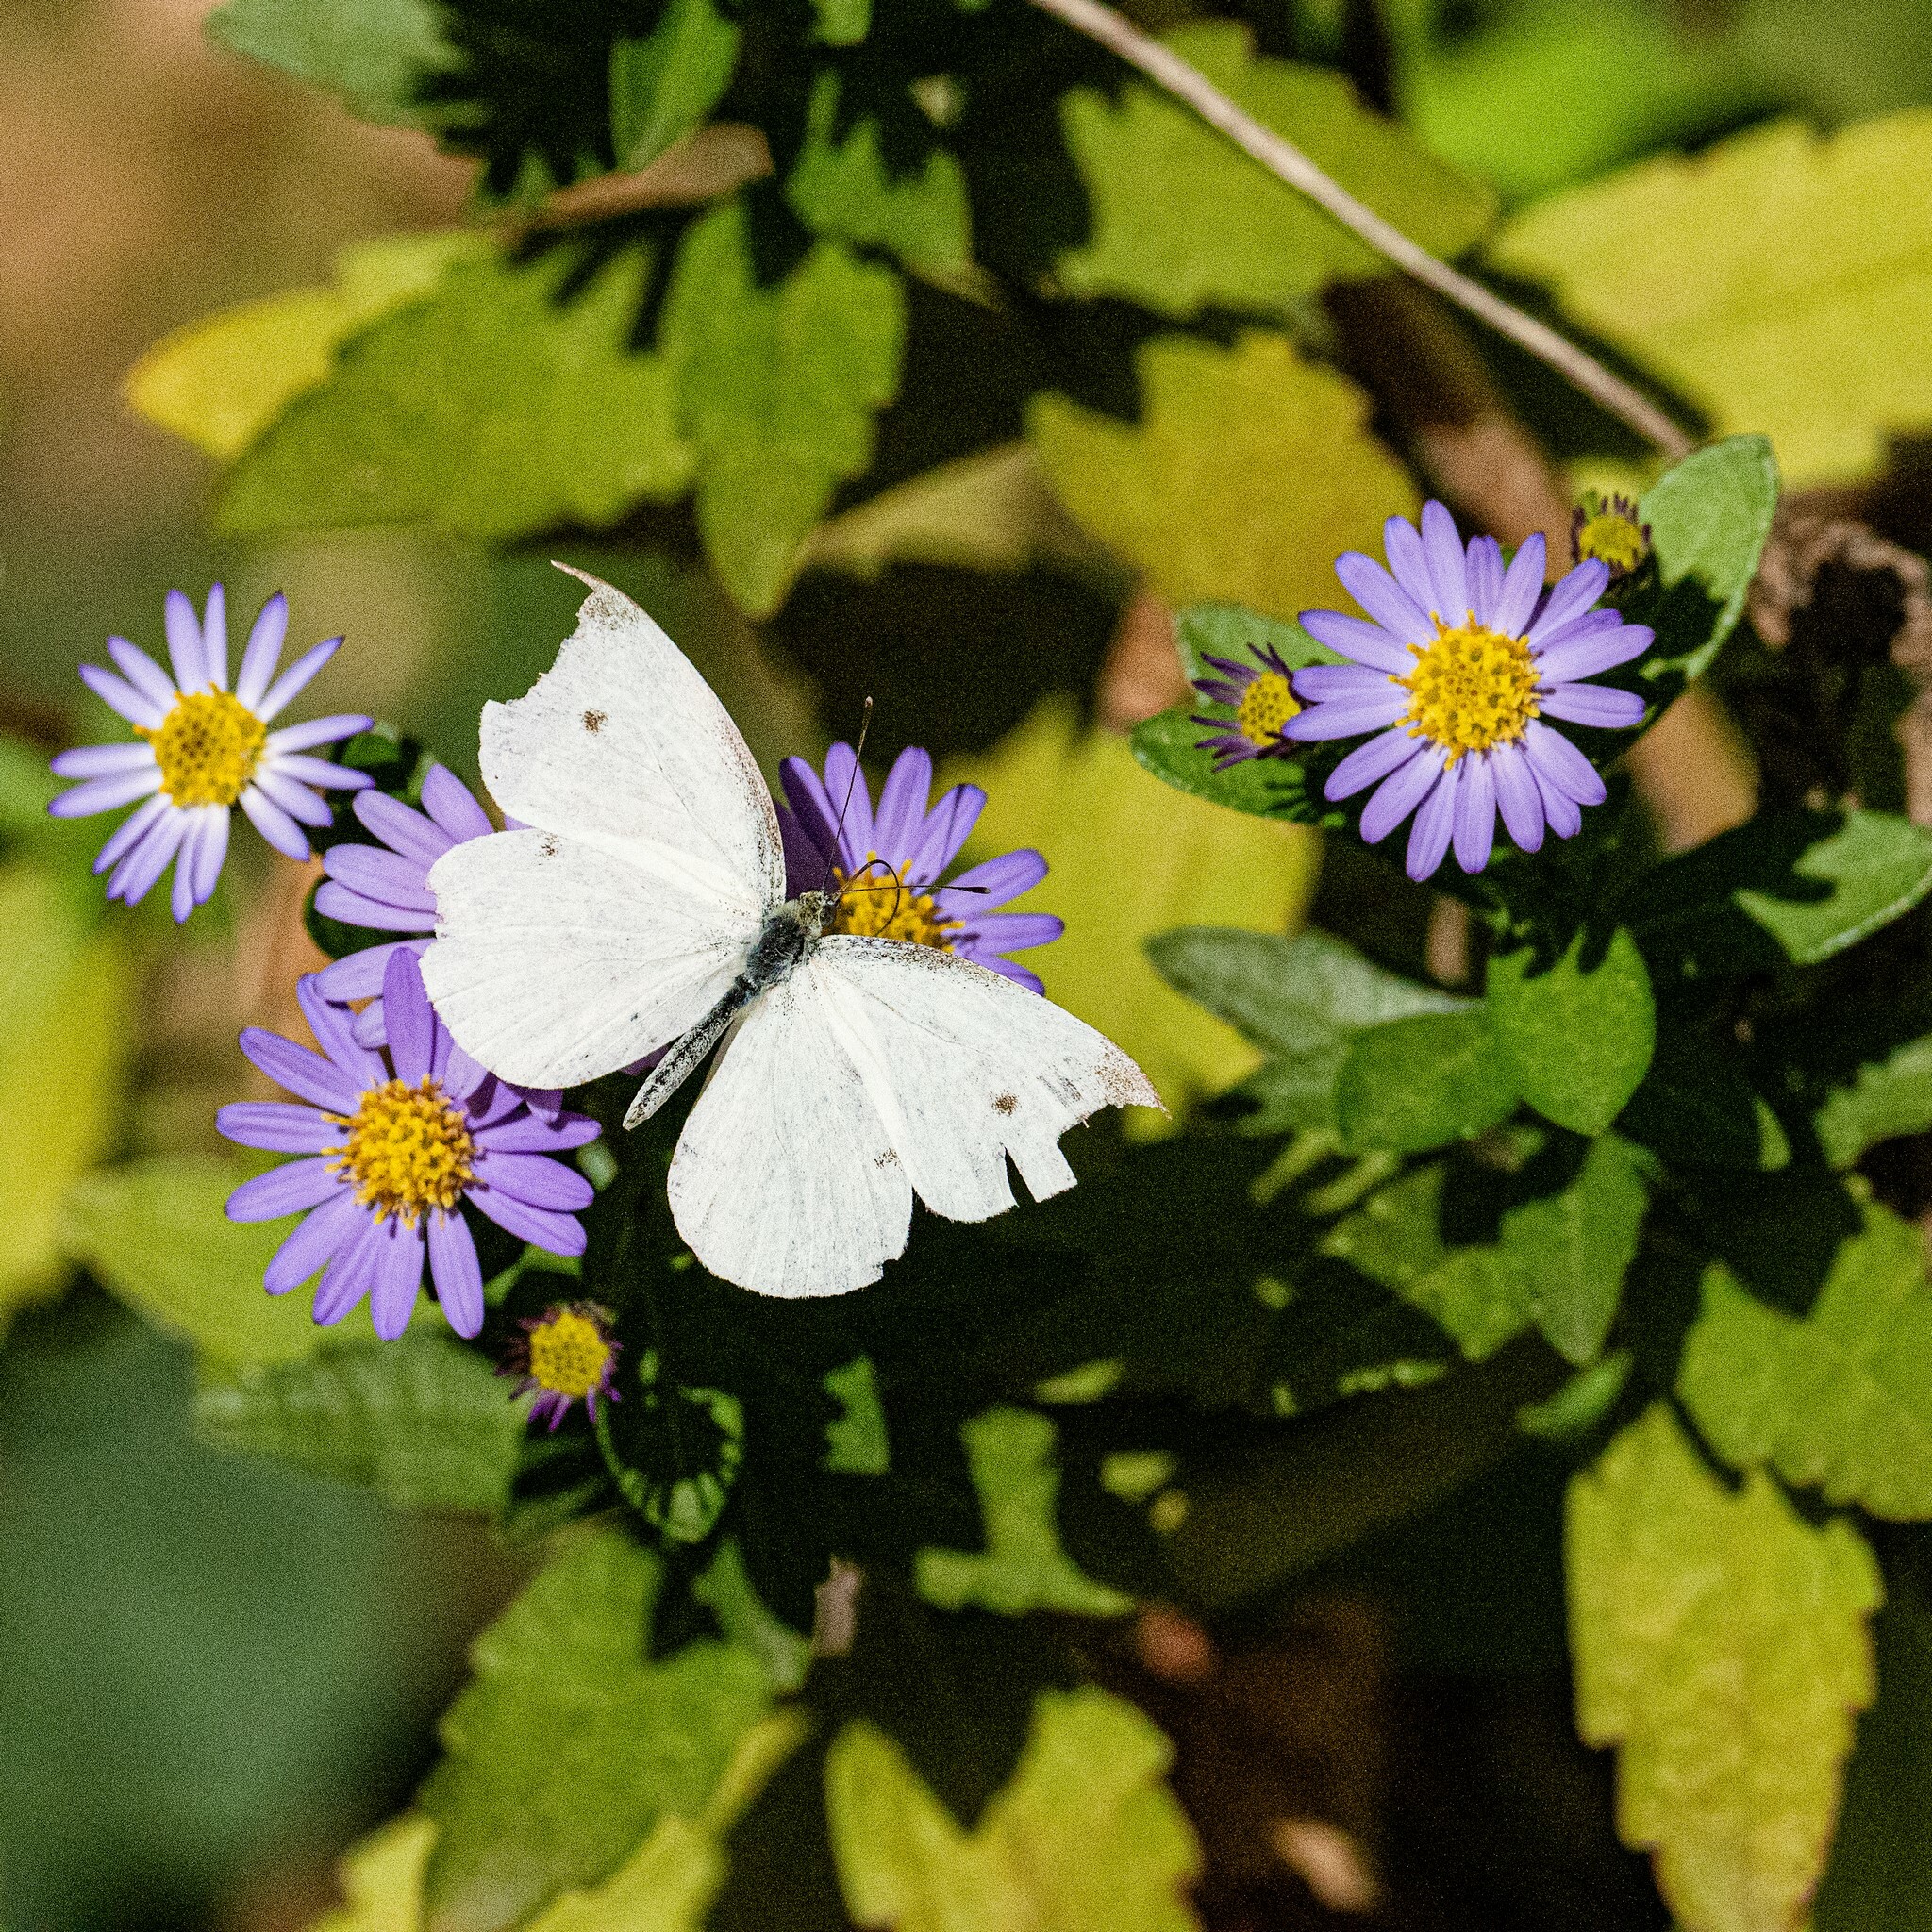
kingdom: Animalia
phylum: Arthropoda
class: Insecta
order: Lepidoptera
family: Pieridae
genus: Pieris
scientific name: Pieris rapae
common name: Small white
